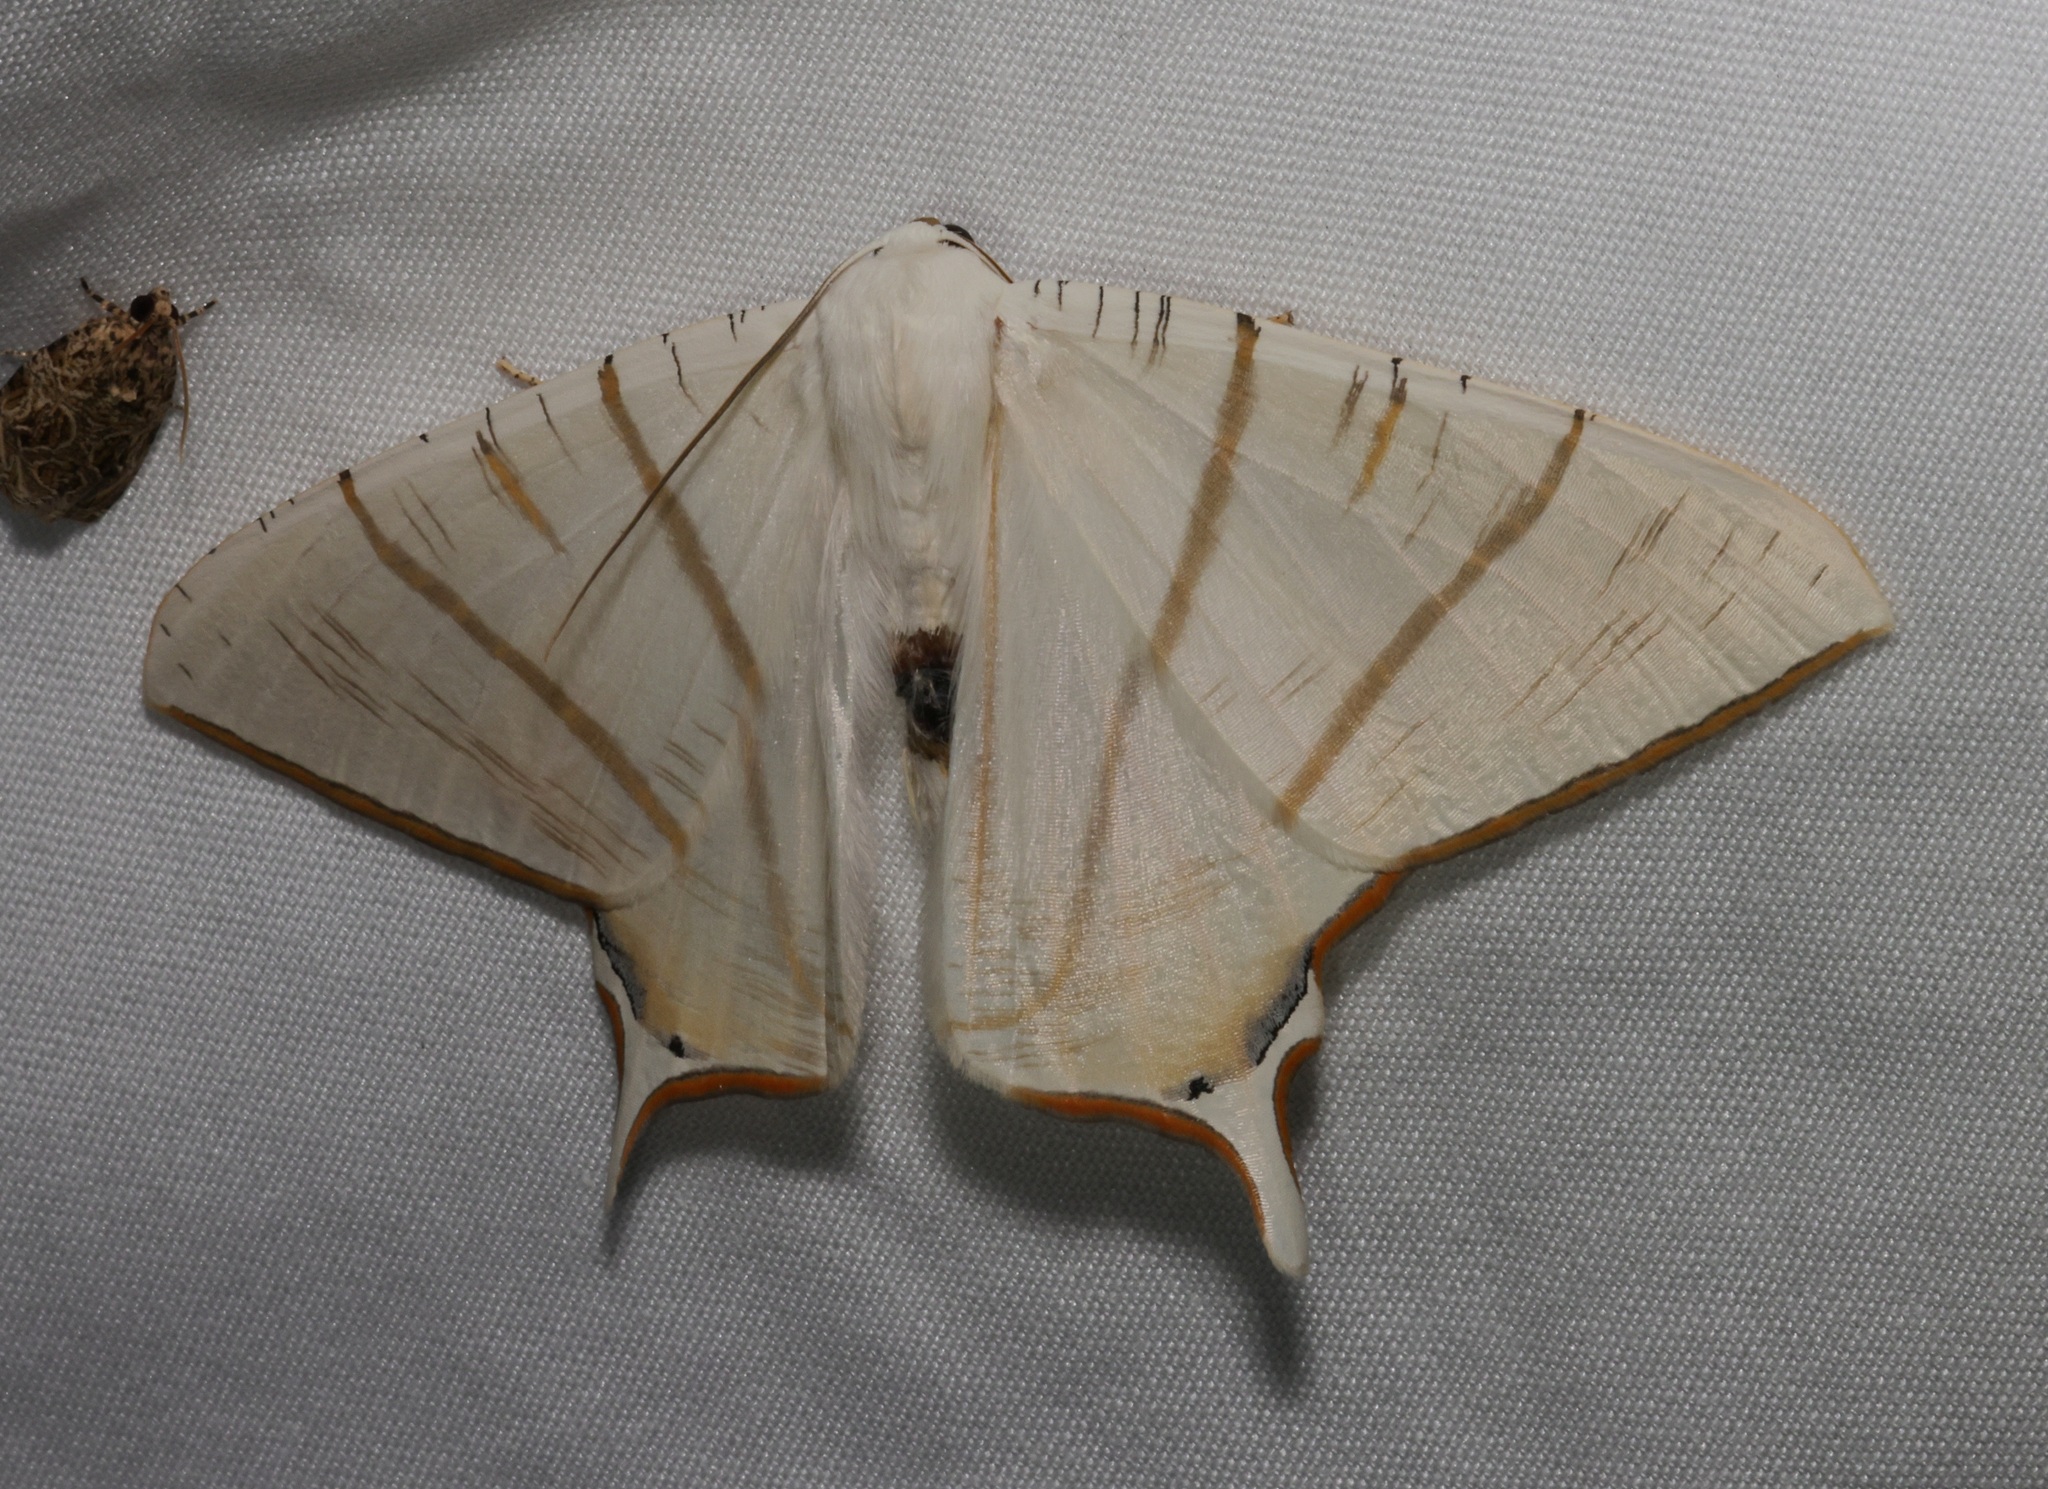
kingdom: Animalia
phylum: Arthropoda
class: Insecta
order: Lepidoptera
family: Geometridae
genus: Ourapteryx
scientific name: Ourapteryx clara
